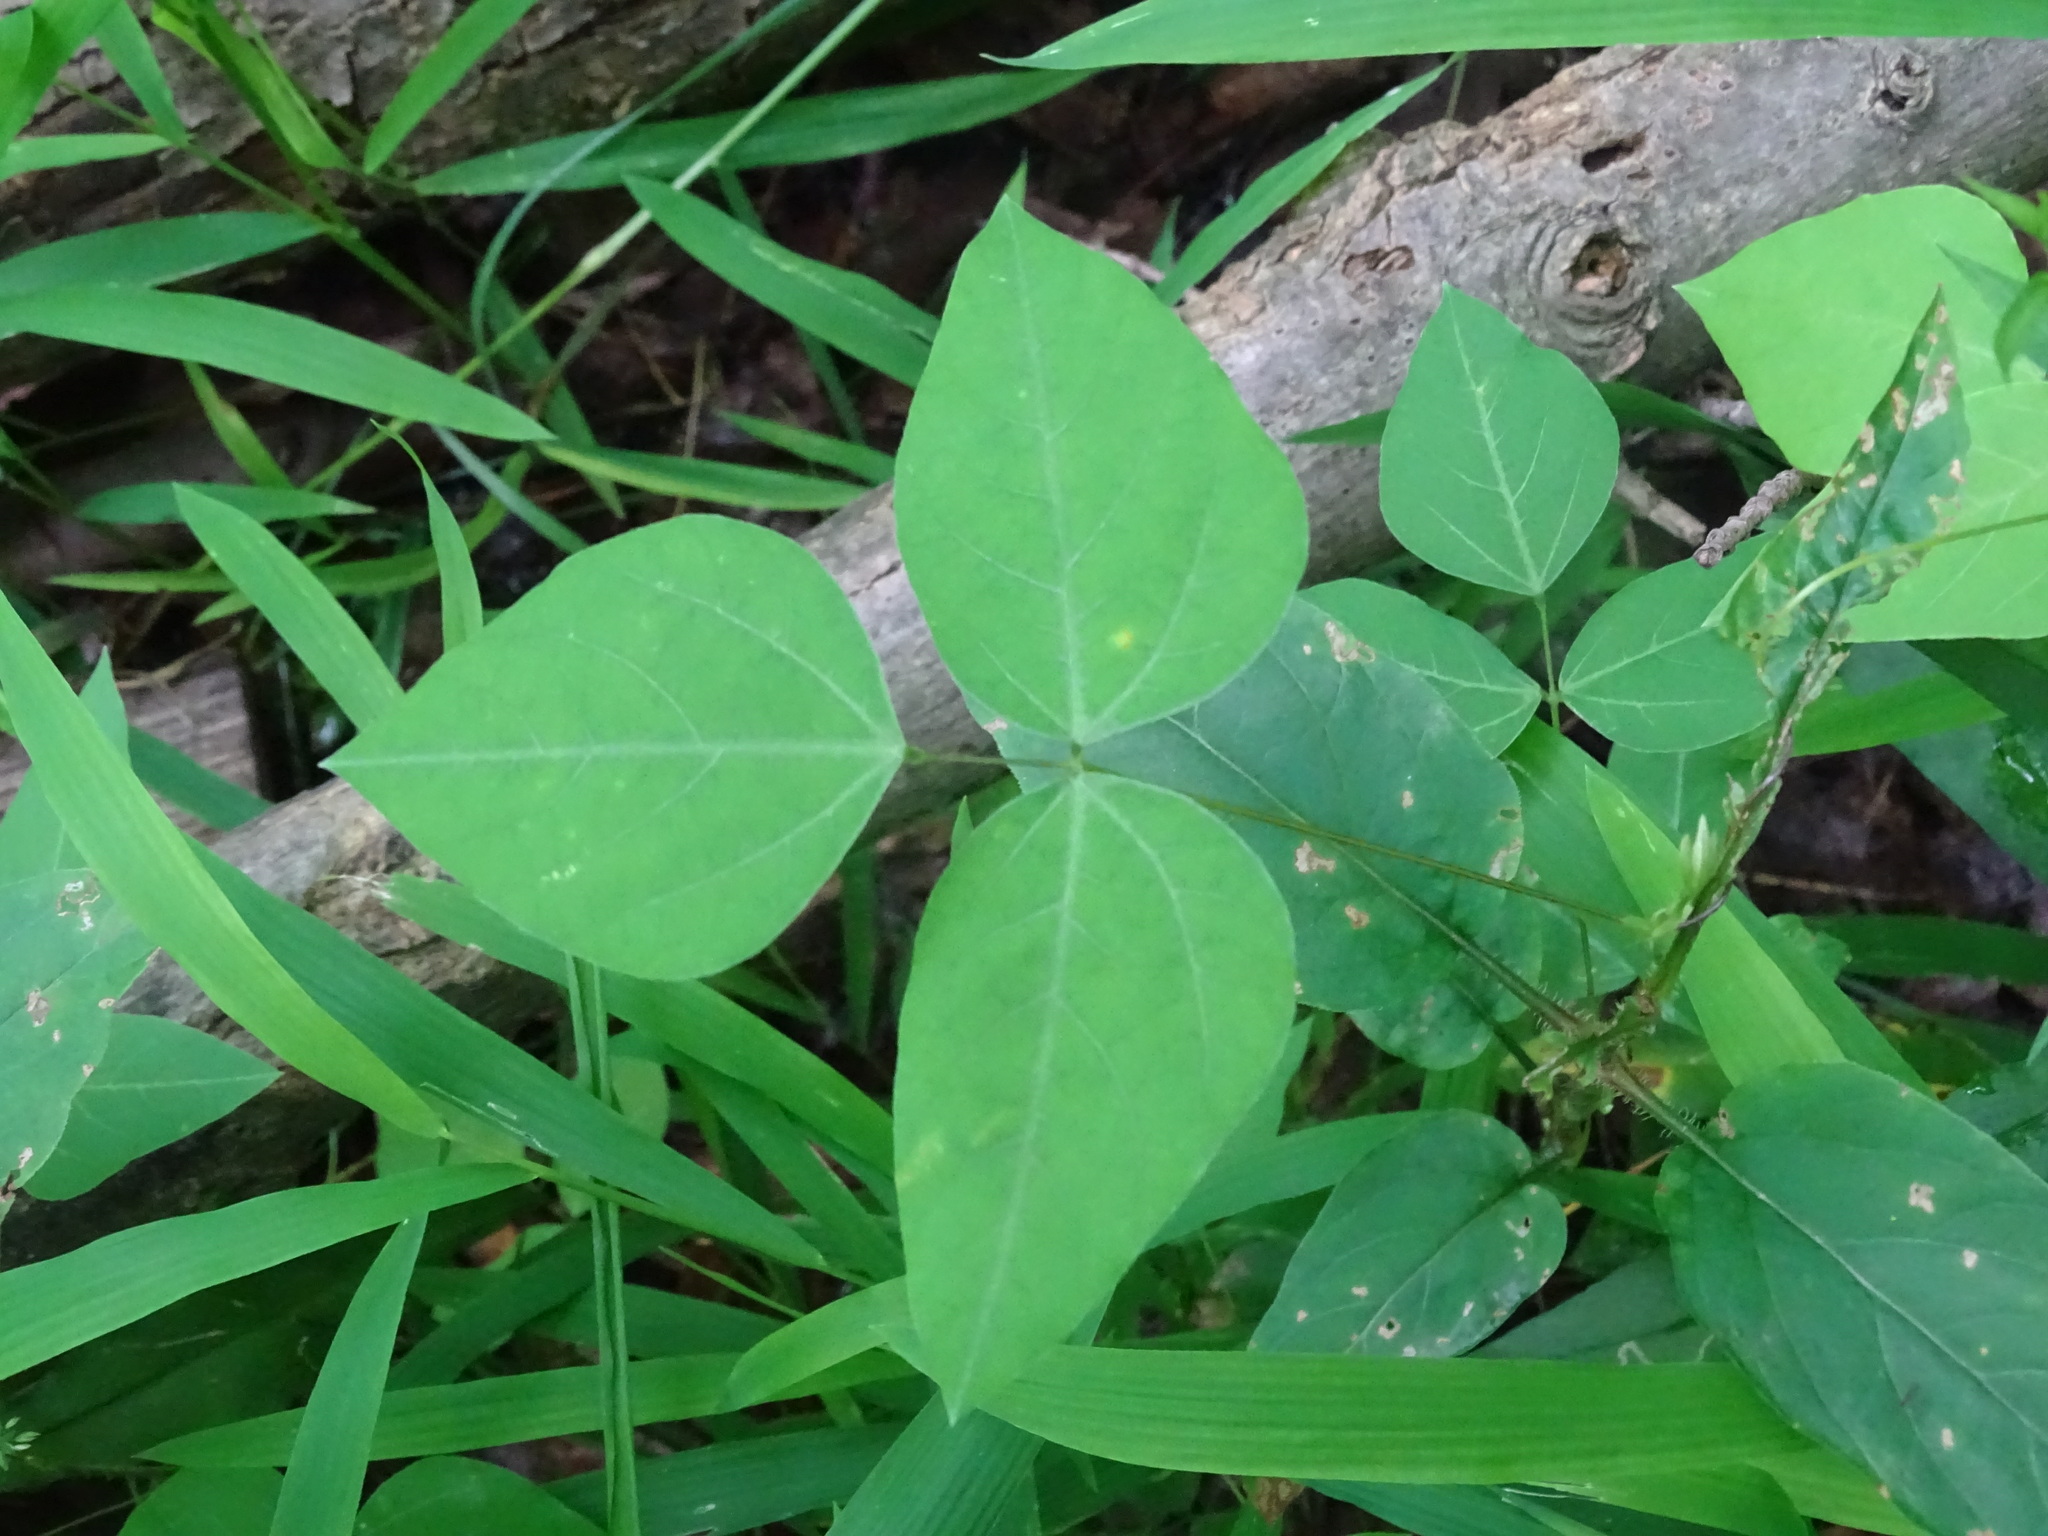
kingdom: Plantae
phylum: Tracheophyta
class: Magnoliopsida
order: Fabales
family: Fabaceae
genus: Amphicarpaea
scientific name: Amphicarpaea bracteata
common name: American hog peanut
